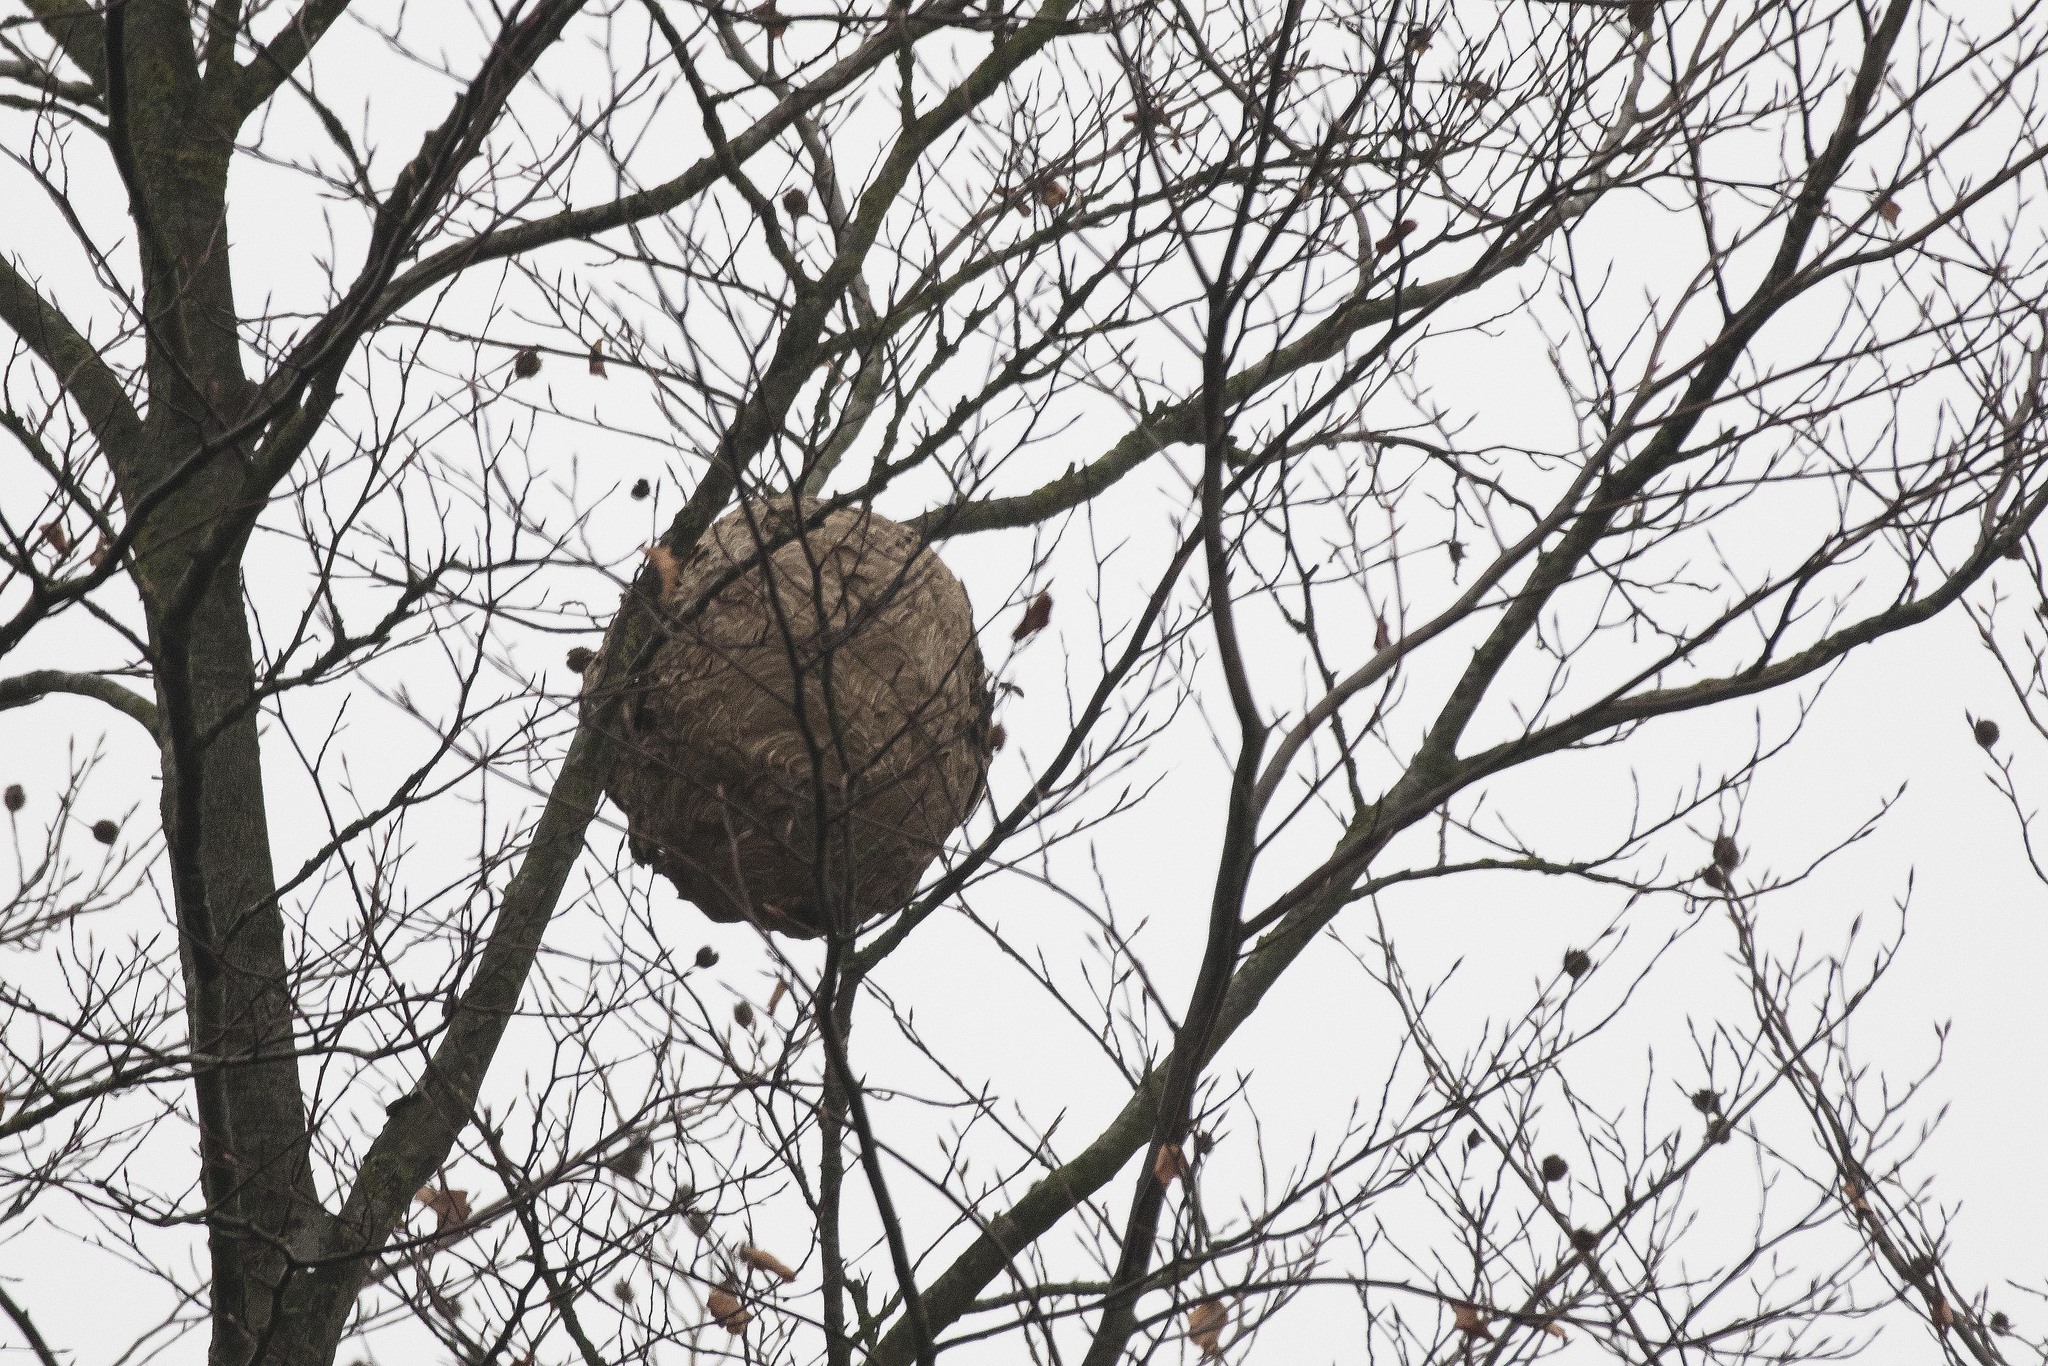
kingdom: Animalia
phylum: Arthropoda
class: Insecta
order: Hymenoptera
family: Vespidae
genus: Vespa
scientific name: Vespa velutina
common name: Asian hornet
